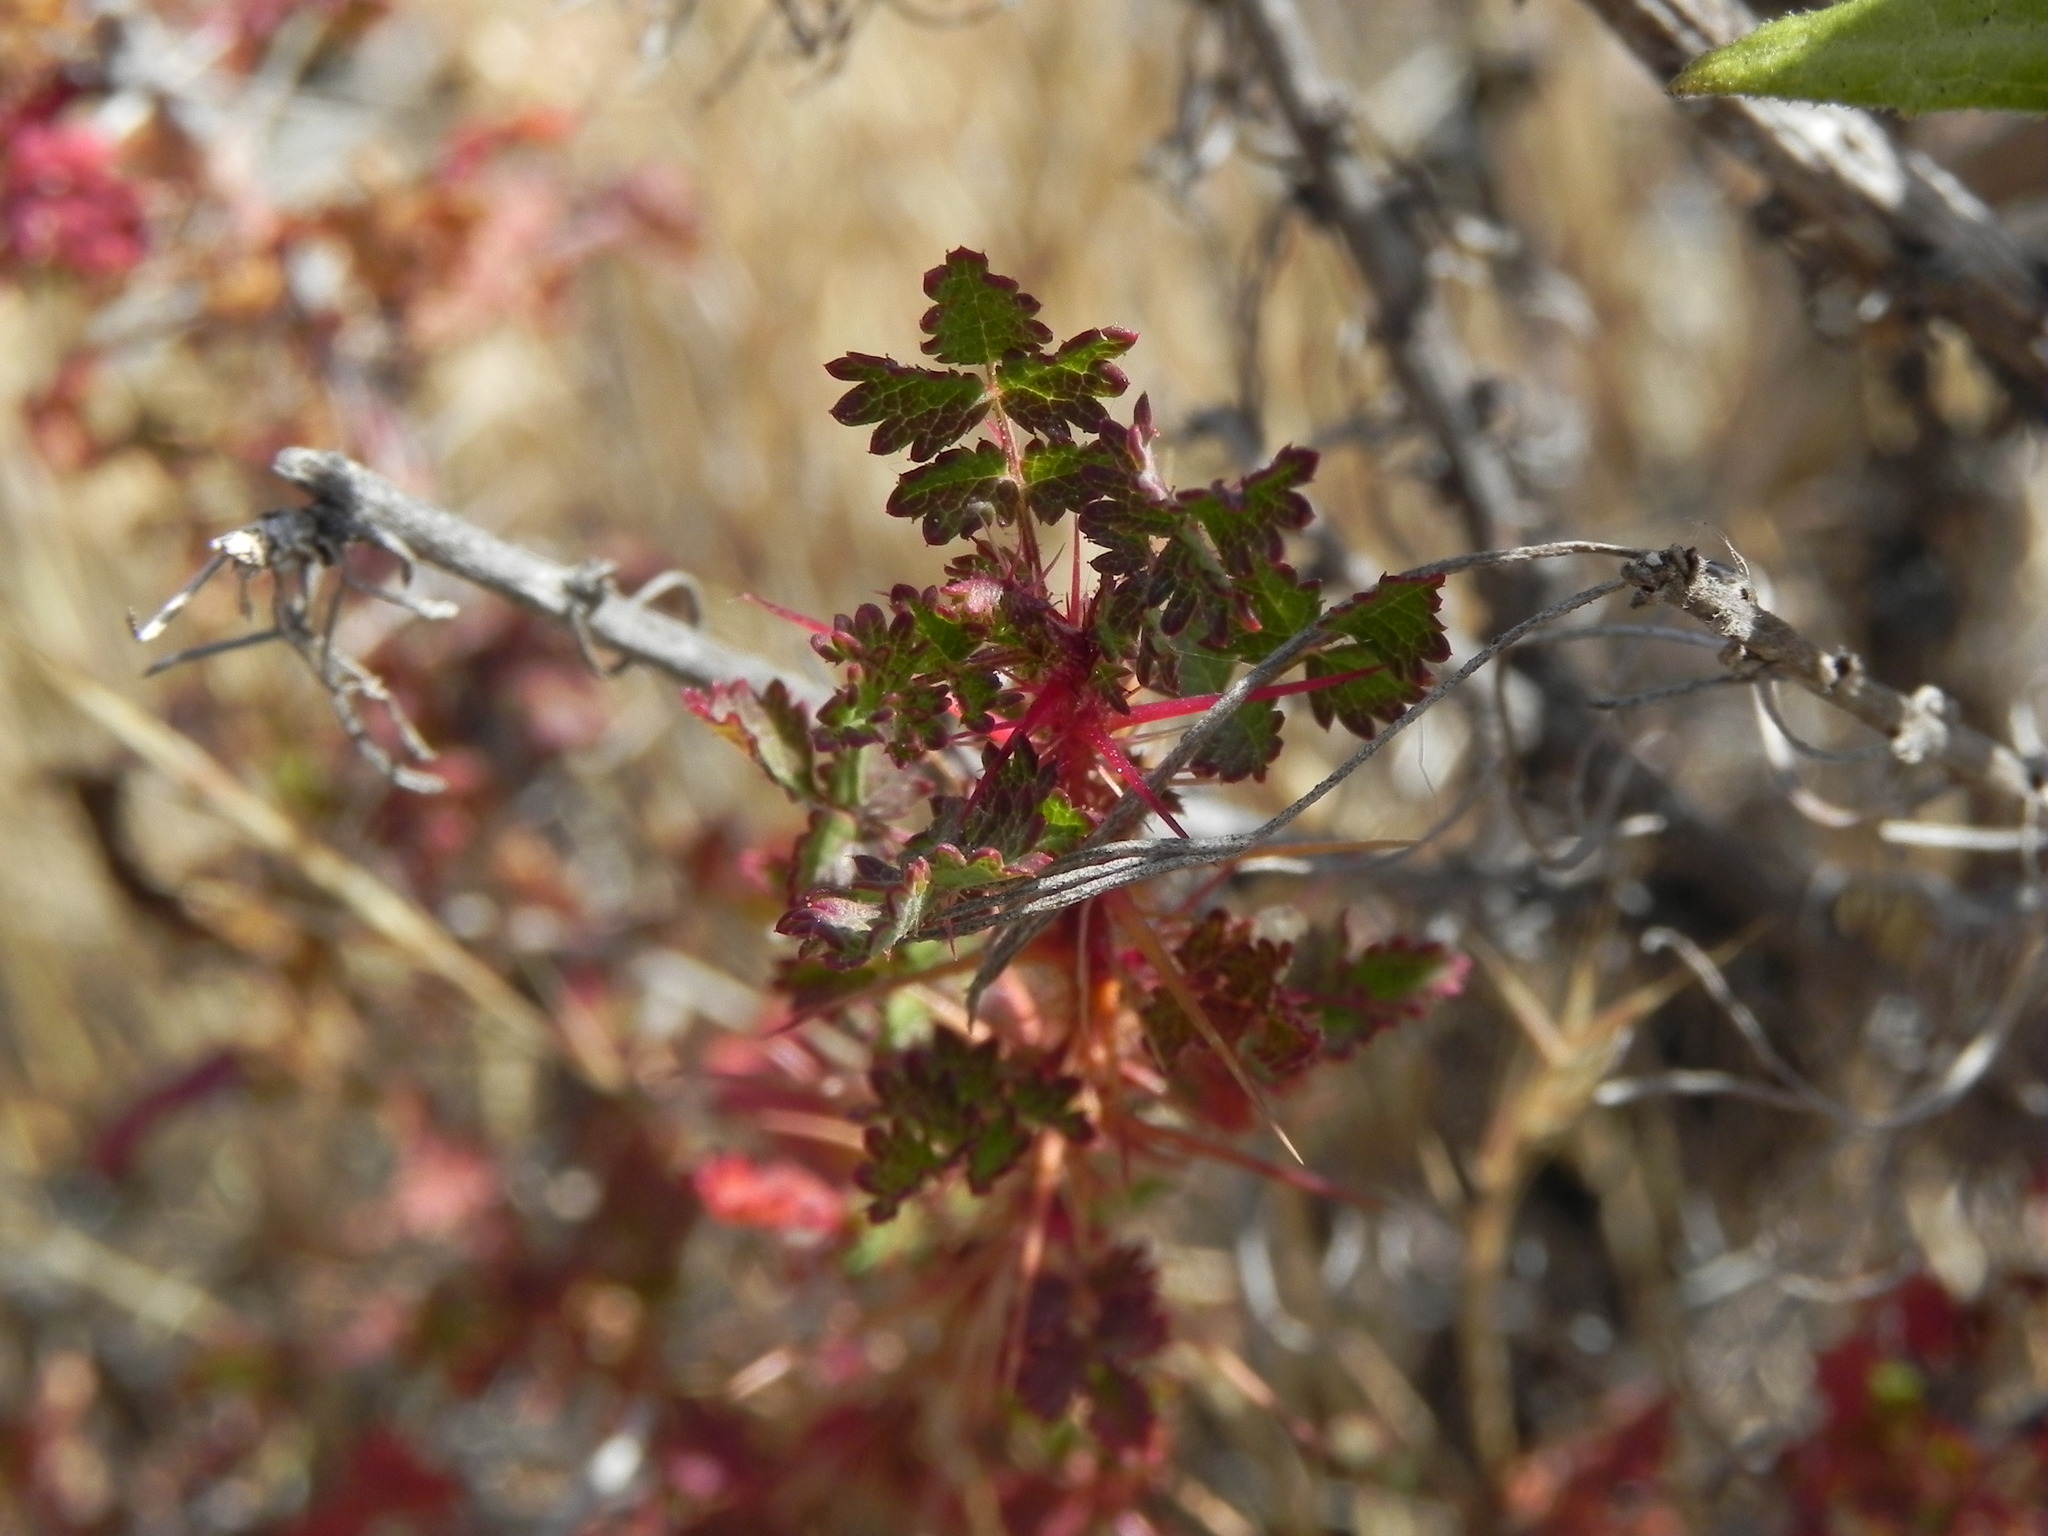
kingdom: Plantae
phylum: Tracheophyta
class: Magnoliopsida
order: Rosales
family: Rosaceae
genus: Rosa
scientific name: Rosa minutifolia
